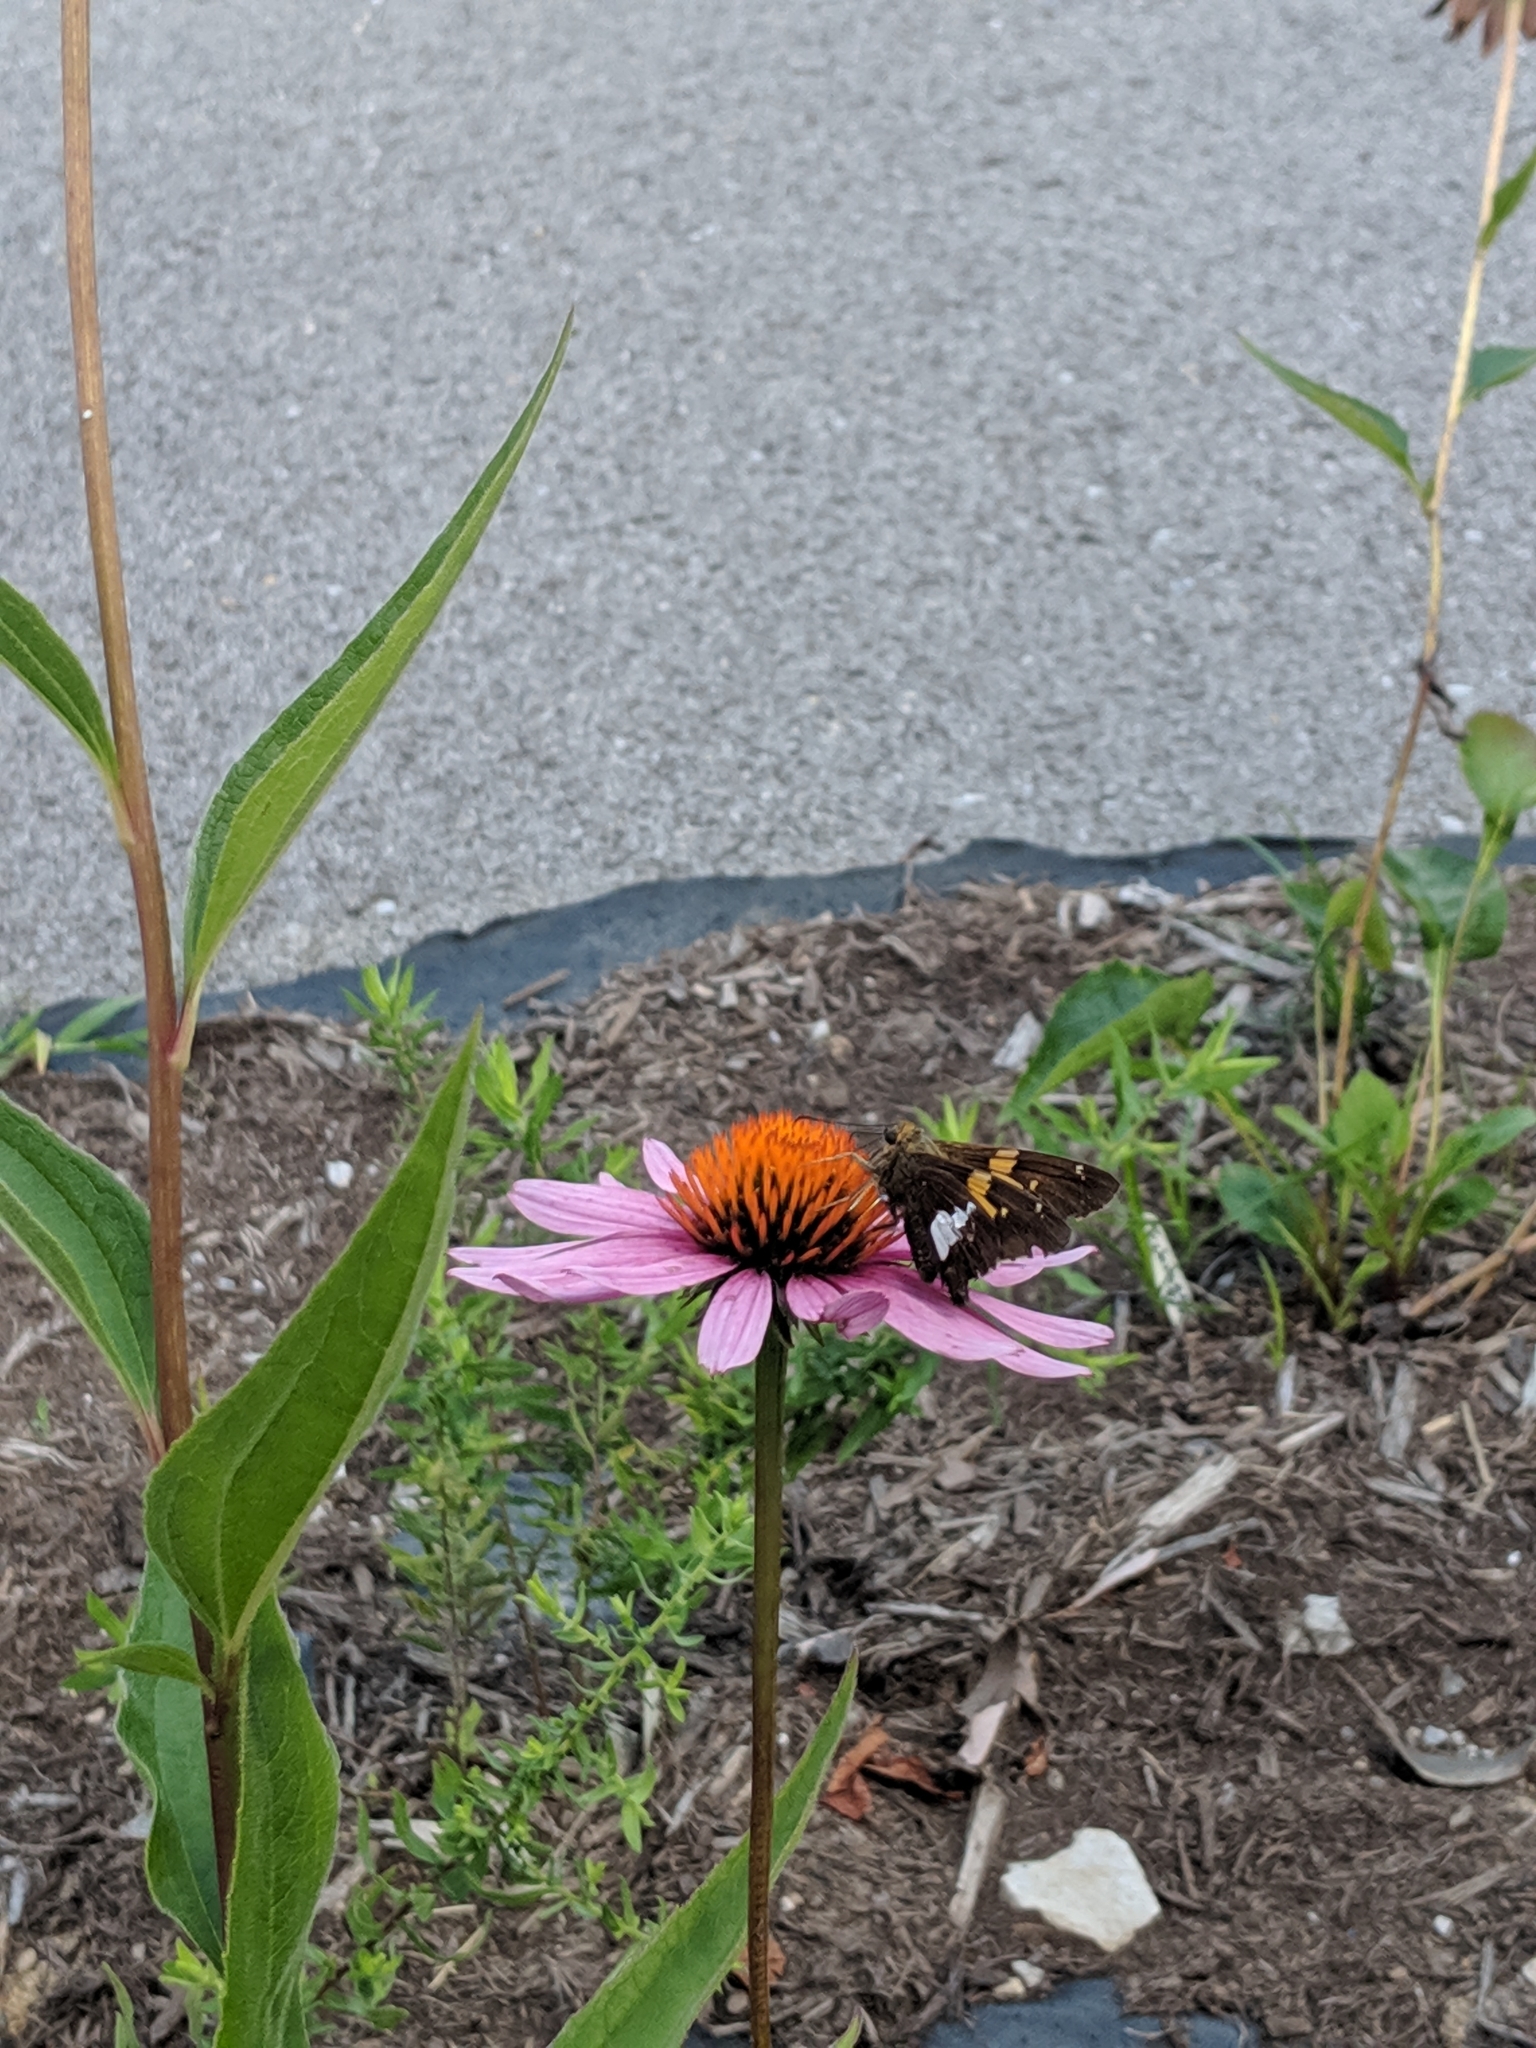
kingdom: Animalia
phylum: Arthropoda
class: Insecta
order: Lepidoptera
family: Hesperiidae
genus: Epargyreus
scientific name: Epargyreus clarus
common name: Silver-spotted skipper
